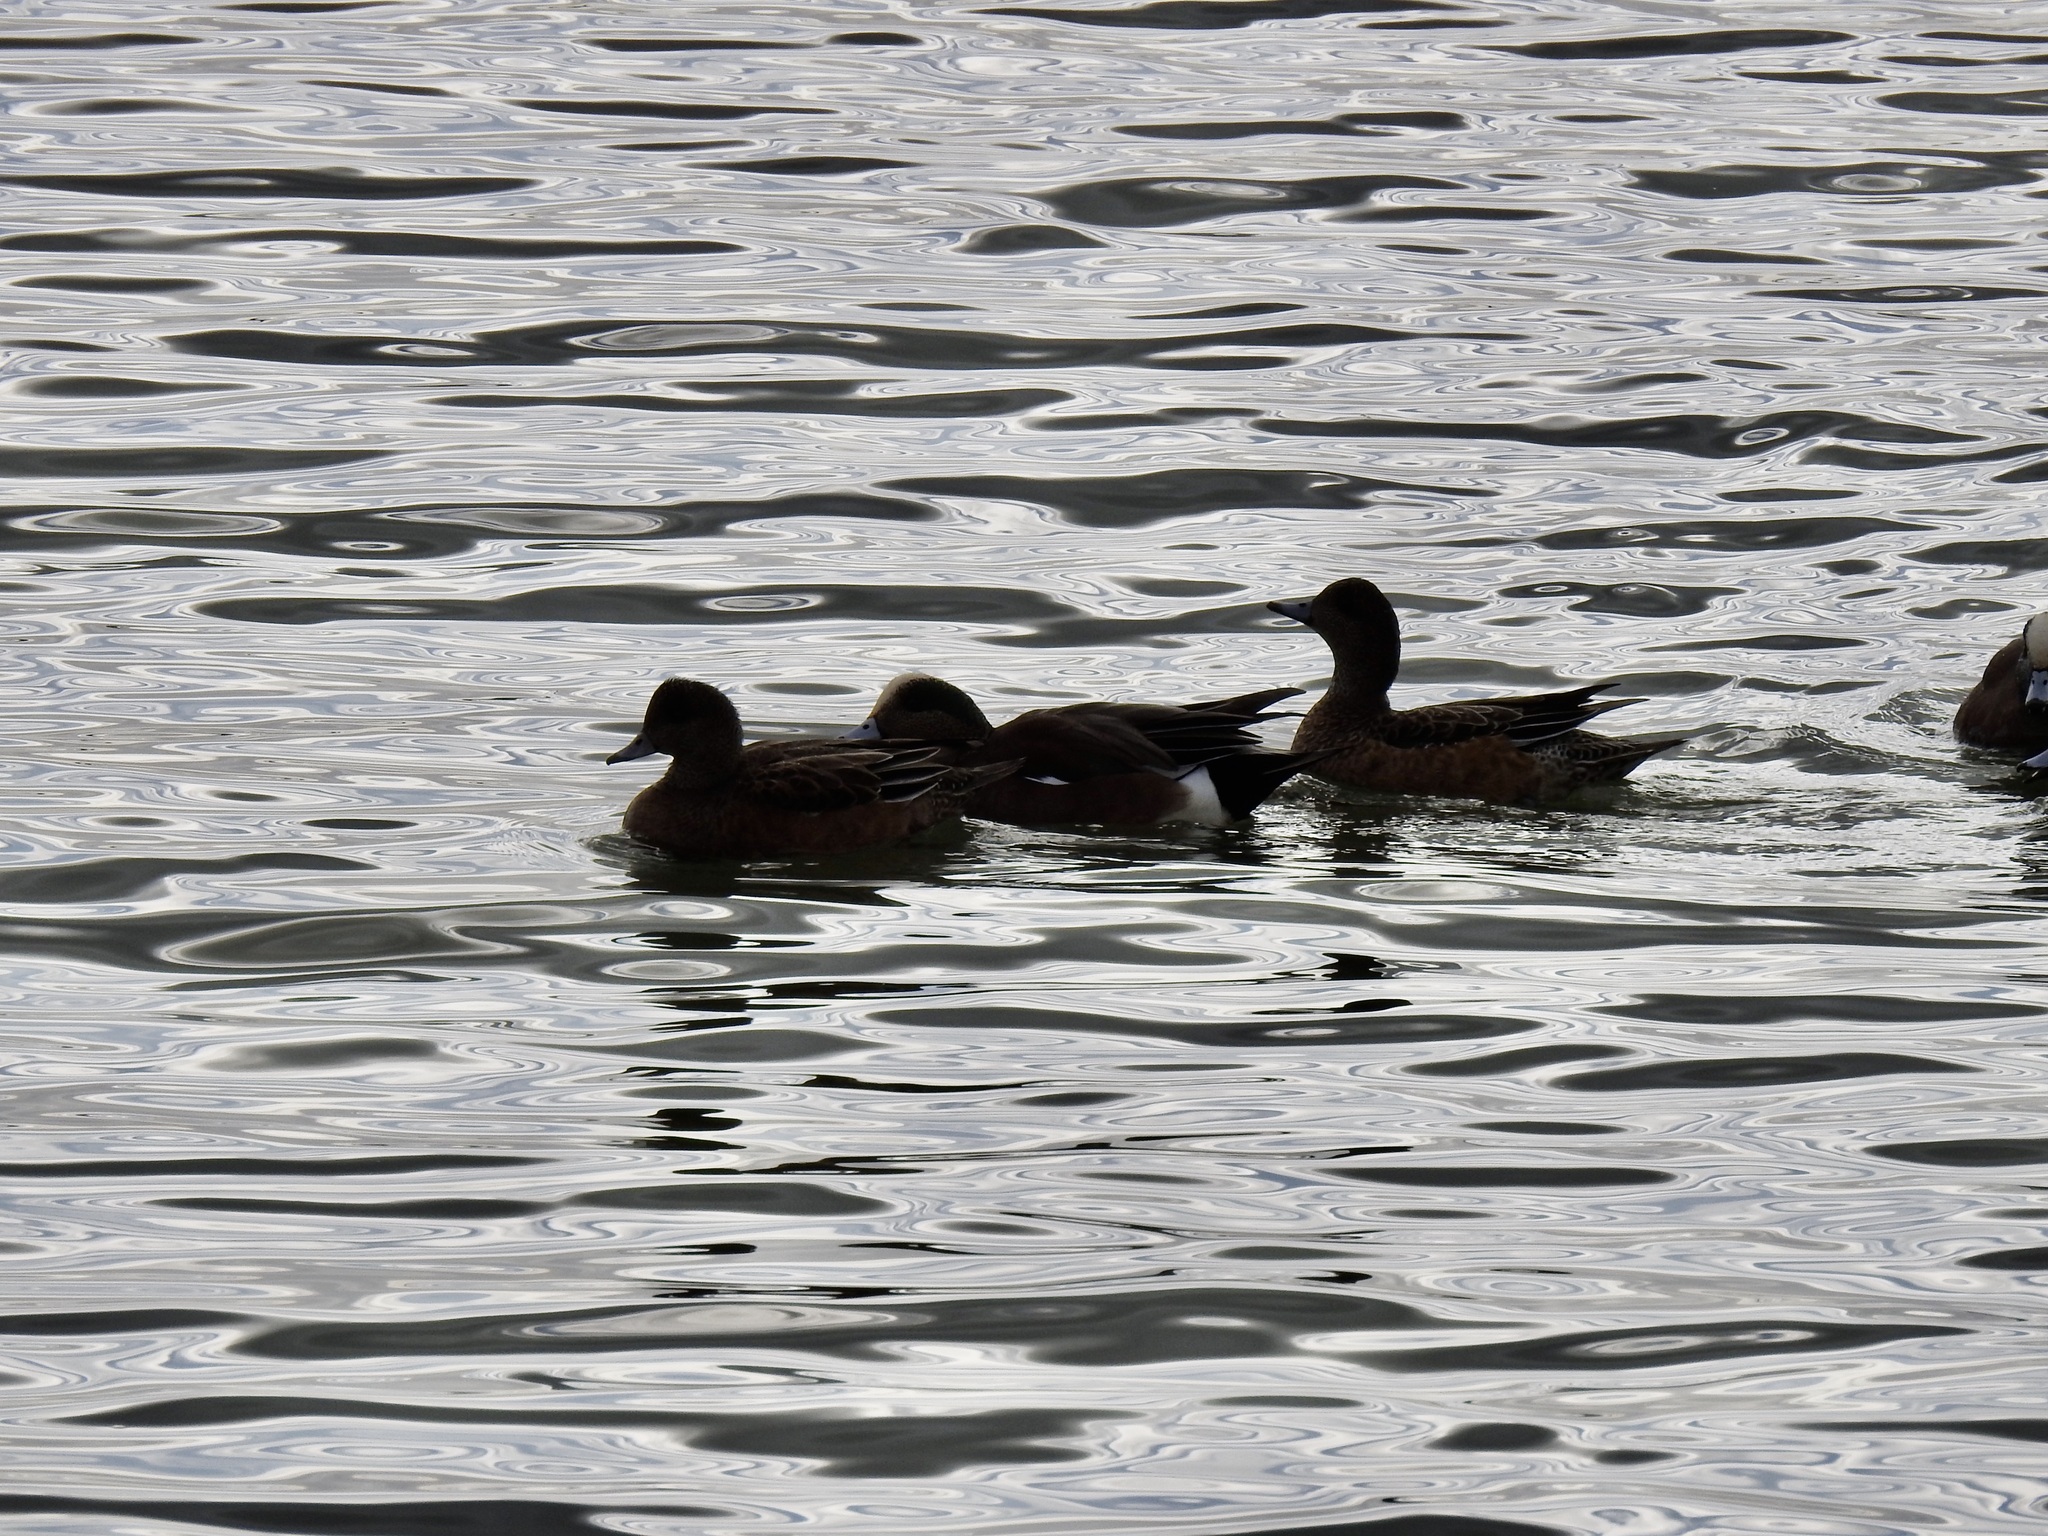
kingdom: Animalia
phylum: Chordata
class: Aves
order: Anseriformes
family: Anatidae
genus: Mareca
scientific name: Mareca americana
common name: American wigeon
